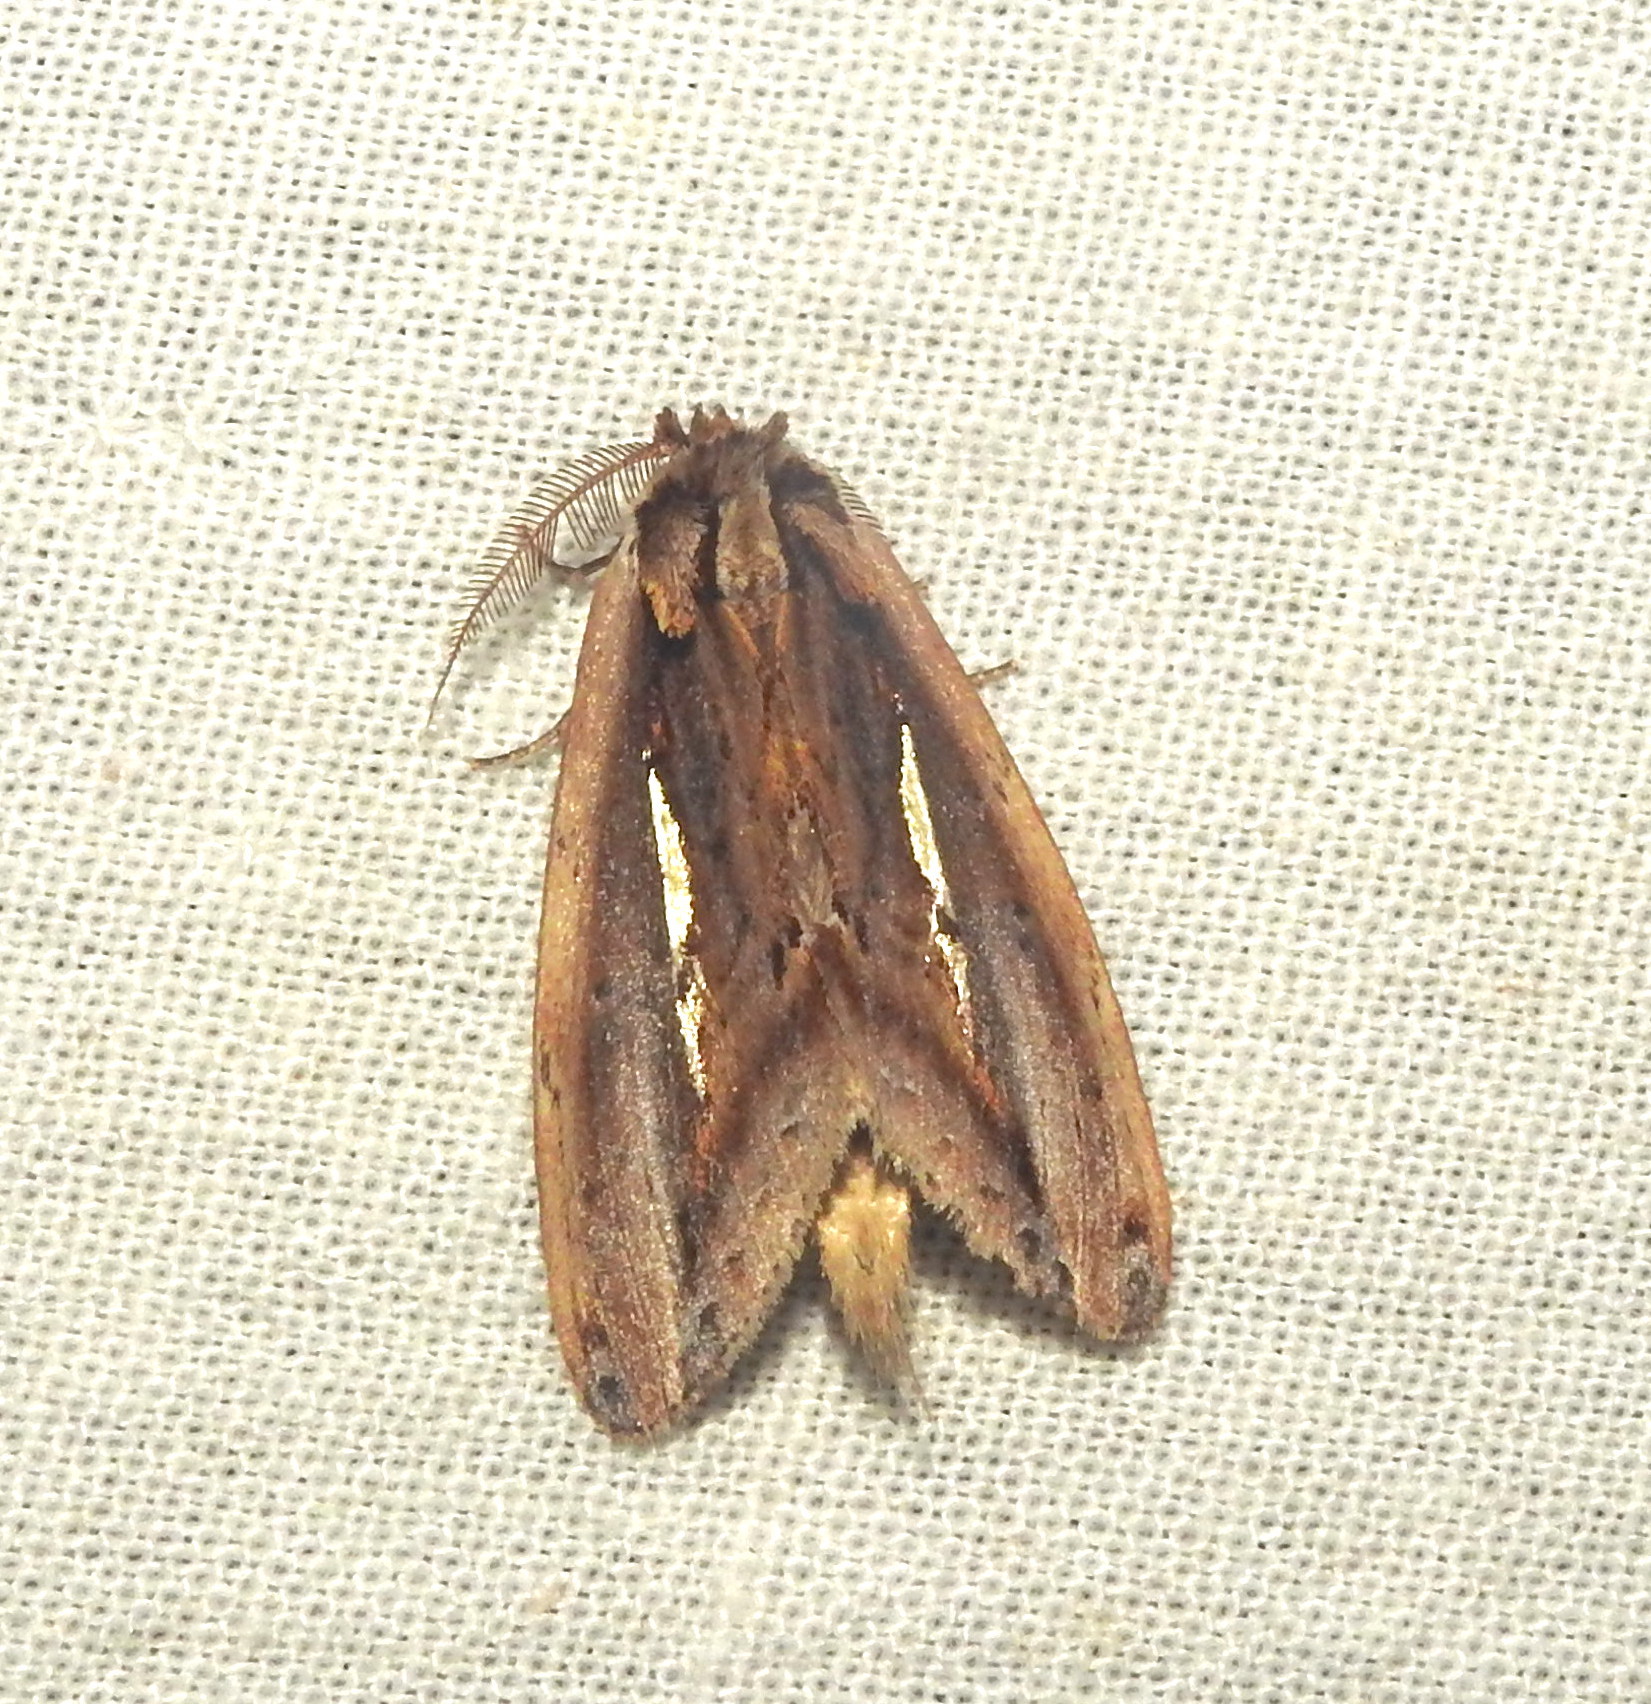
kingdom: Animalia
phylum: Arthropoda
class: Insecta
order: Lepidoptera
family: Notodontidae
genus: Rosama
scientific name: Rosama auritracta
